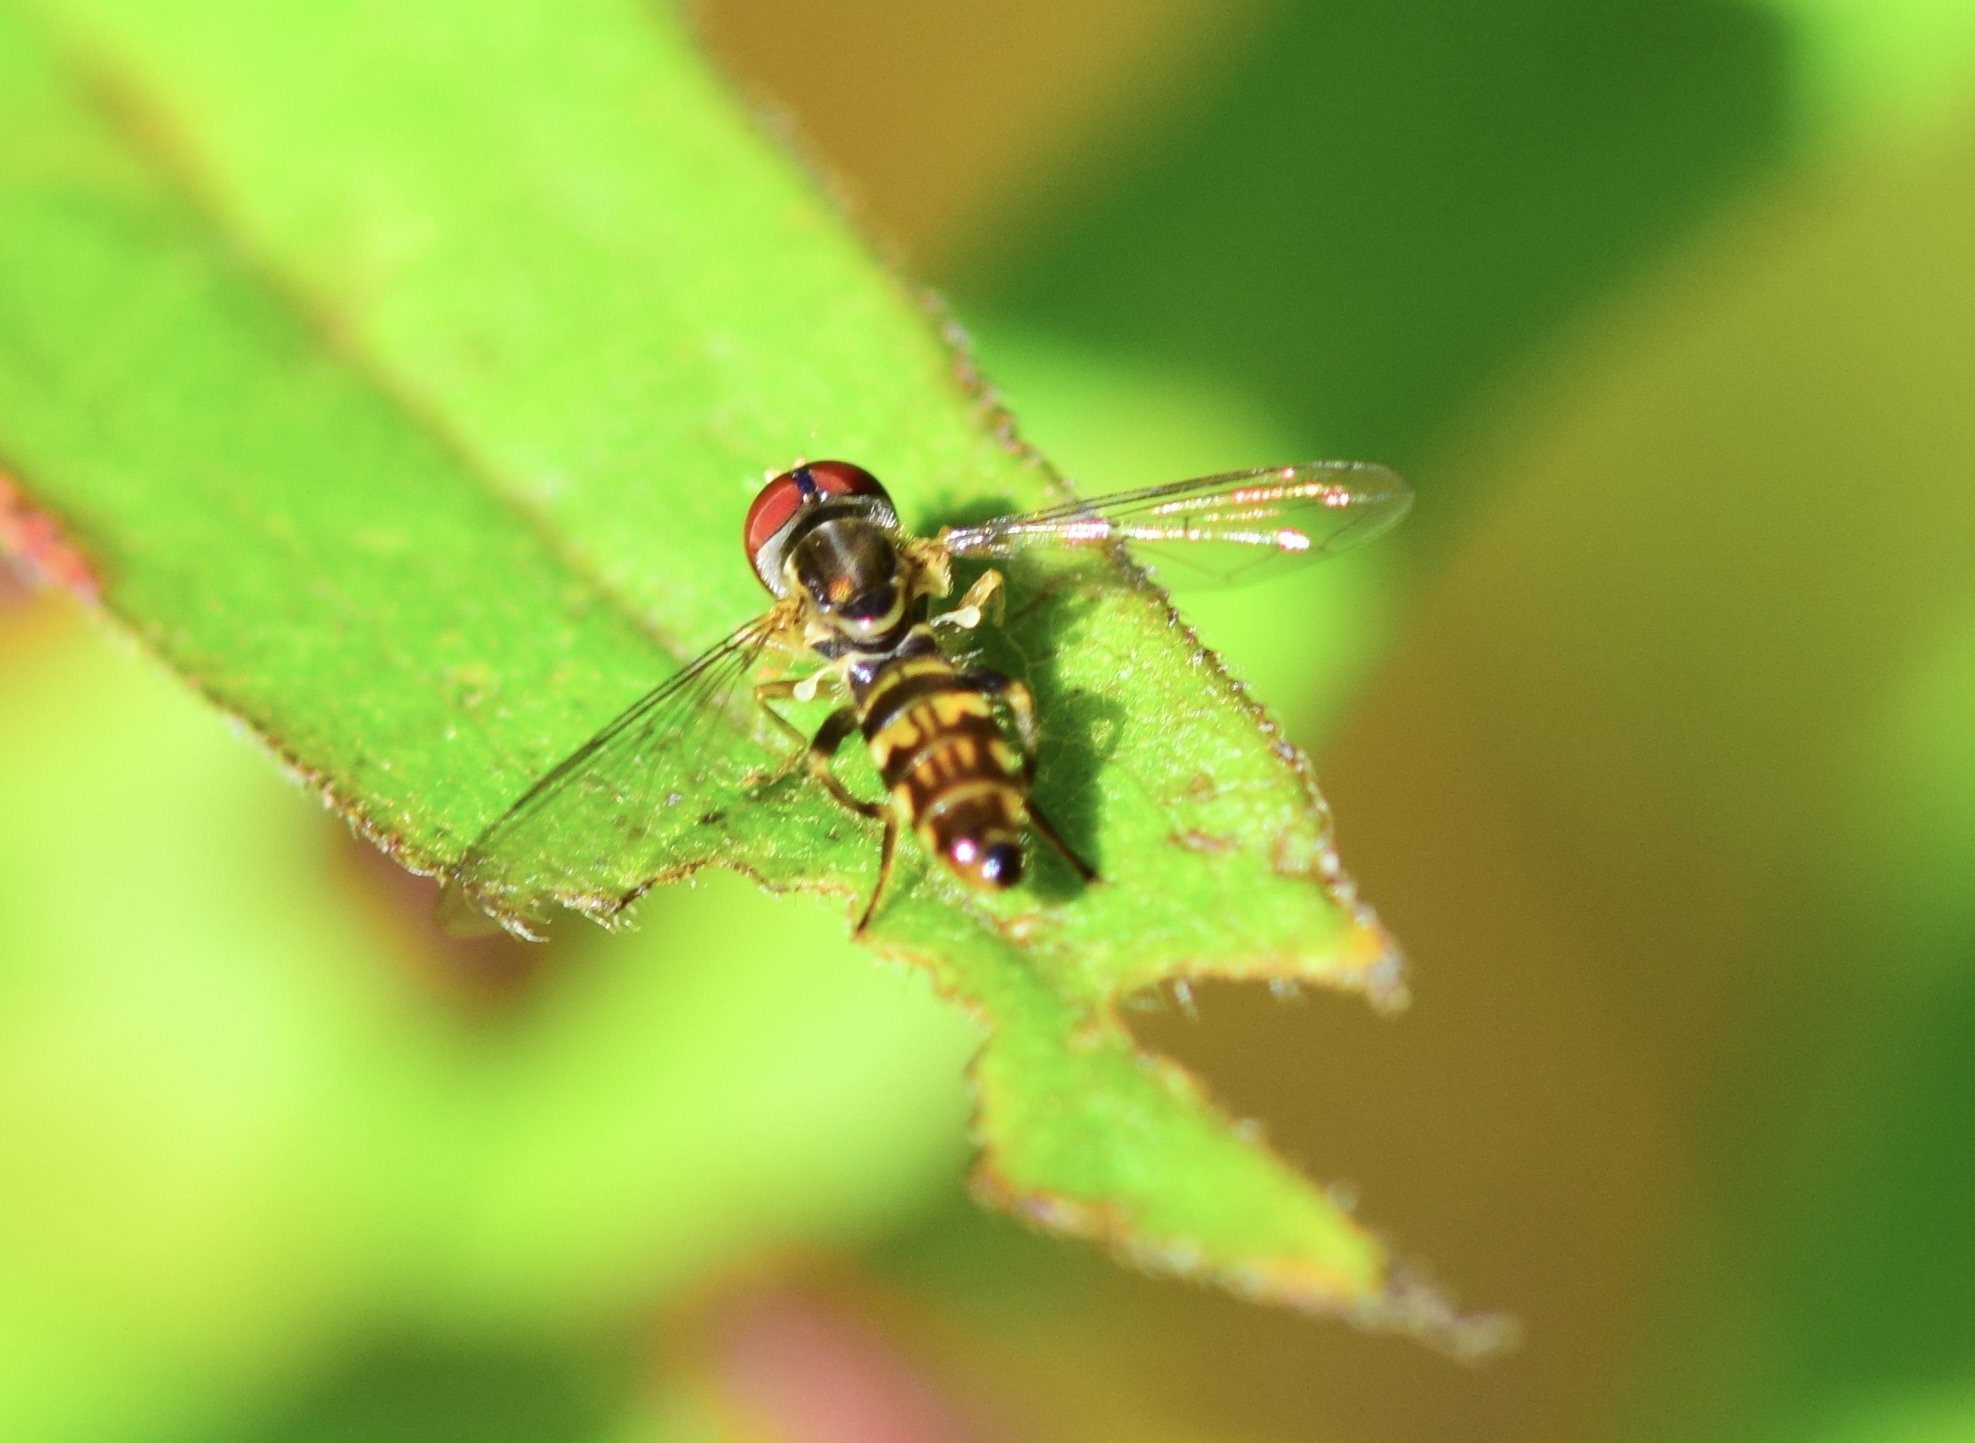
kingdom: Animalia
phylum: Arthropoda
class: Insecta
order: Diptera
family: Syrphidae
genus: Toxomerus
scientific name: Toxomerus geminatus
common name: Eastern calligrapher
